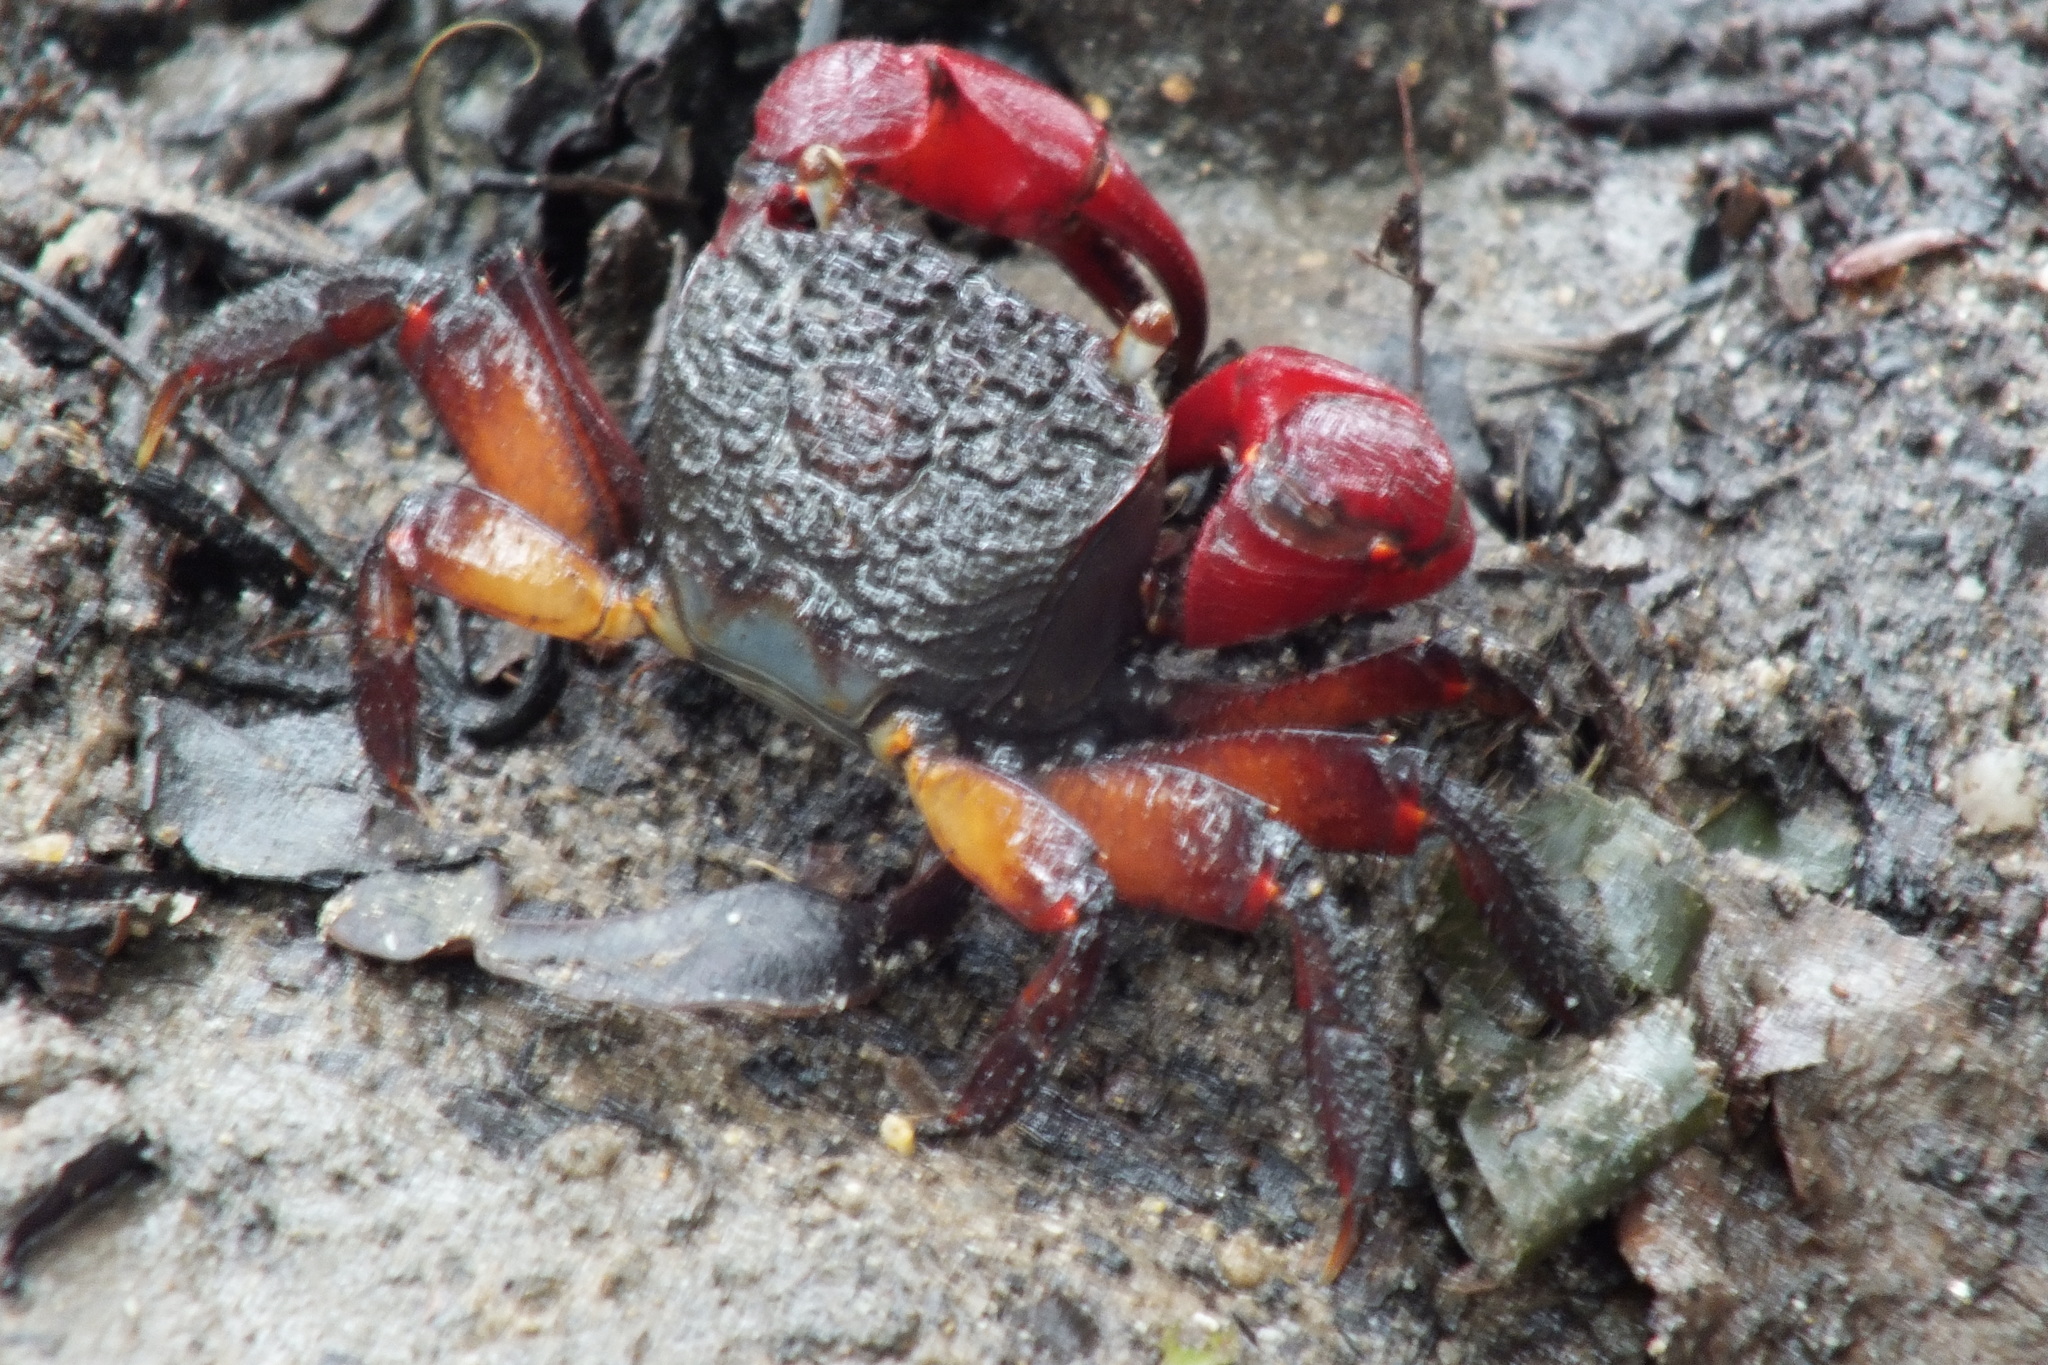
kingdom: Animalia
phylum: Arthropoda
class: Malacostraca
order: Decapoda
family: Sesarmidae
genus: Neosarmatium
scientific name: Neosarmatium fourmanoiri
